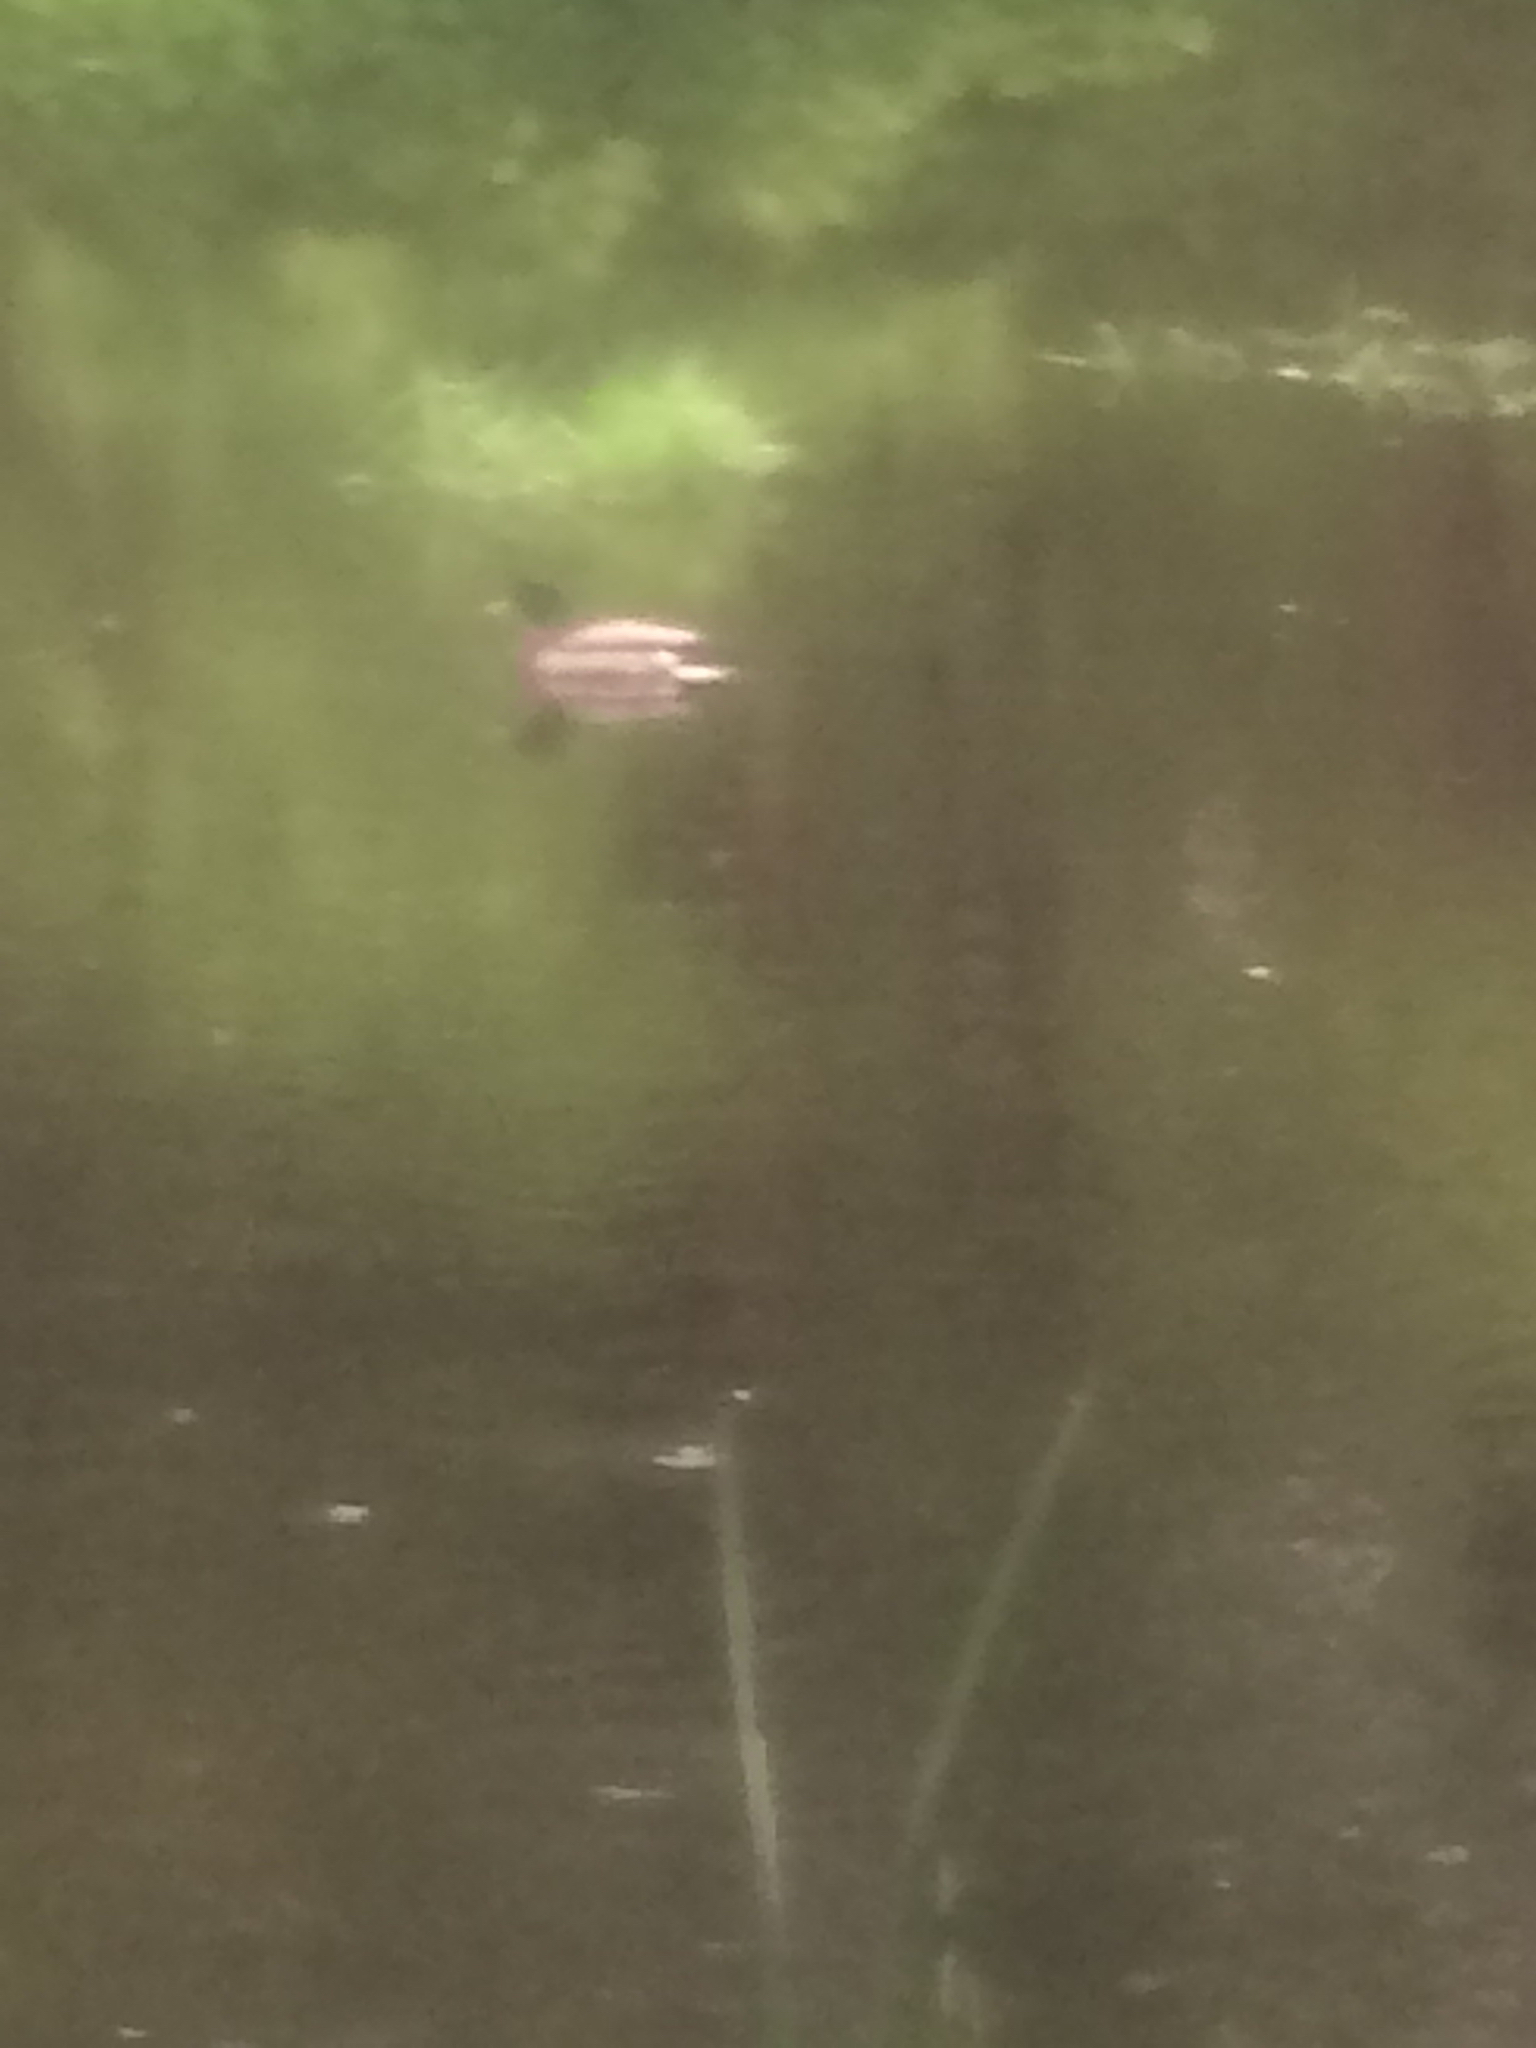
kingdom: Animalia
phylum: Chordata
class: Aves
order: Anseriformes
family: Anatidae
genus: Anas
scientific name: Anas platyrhynchos
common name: Mallard
